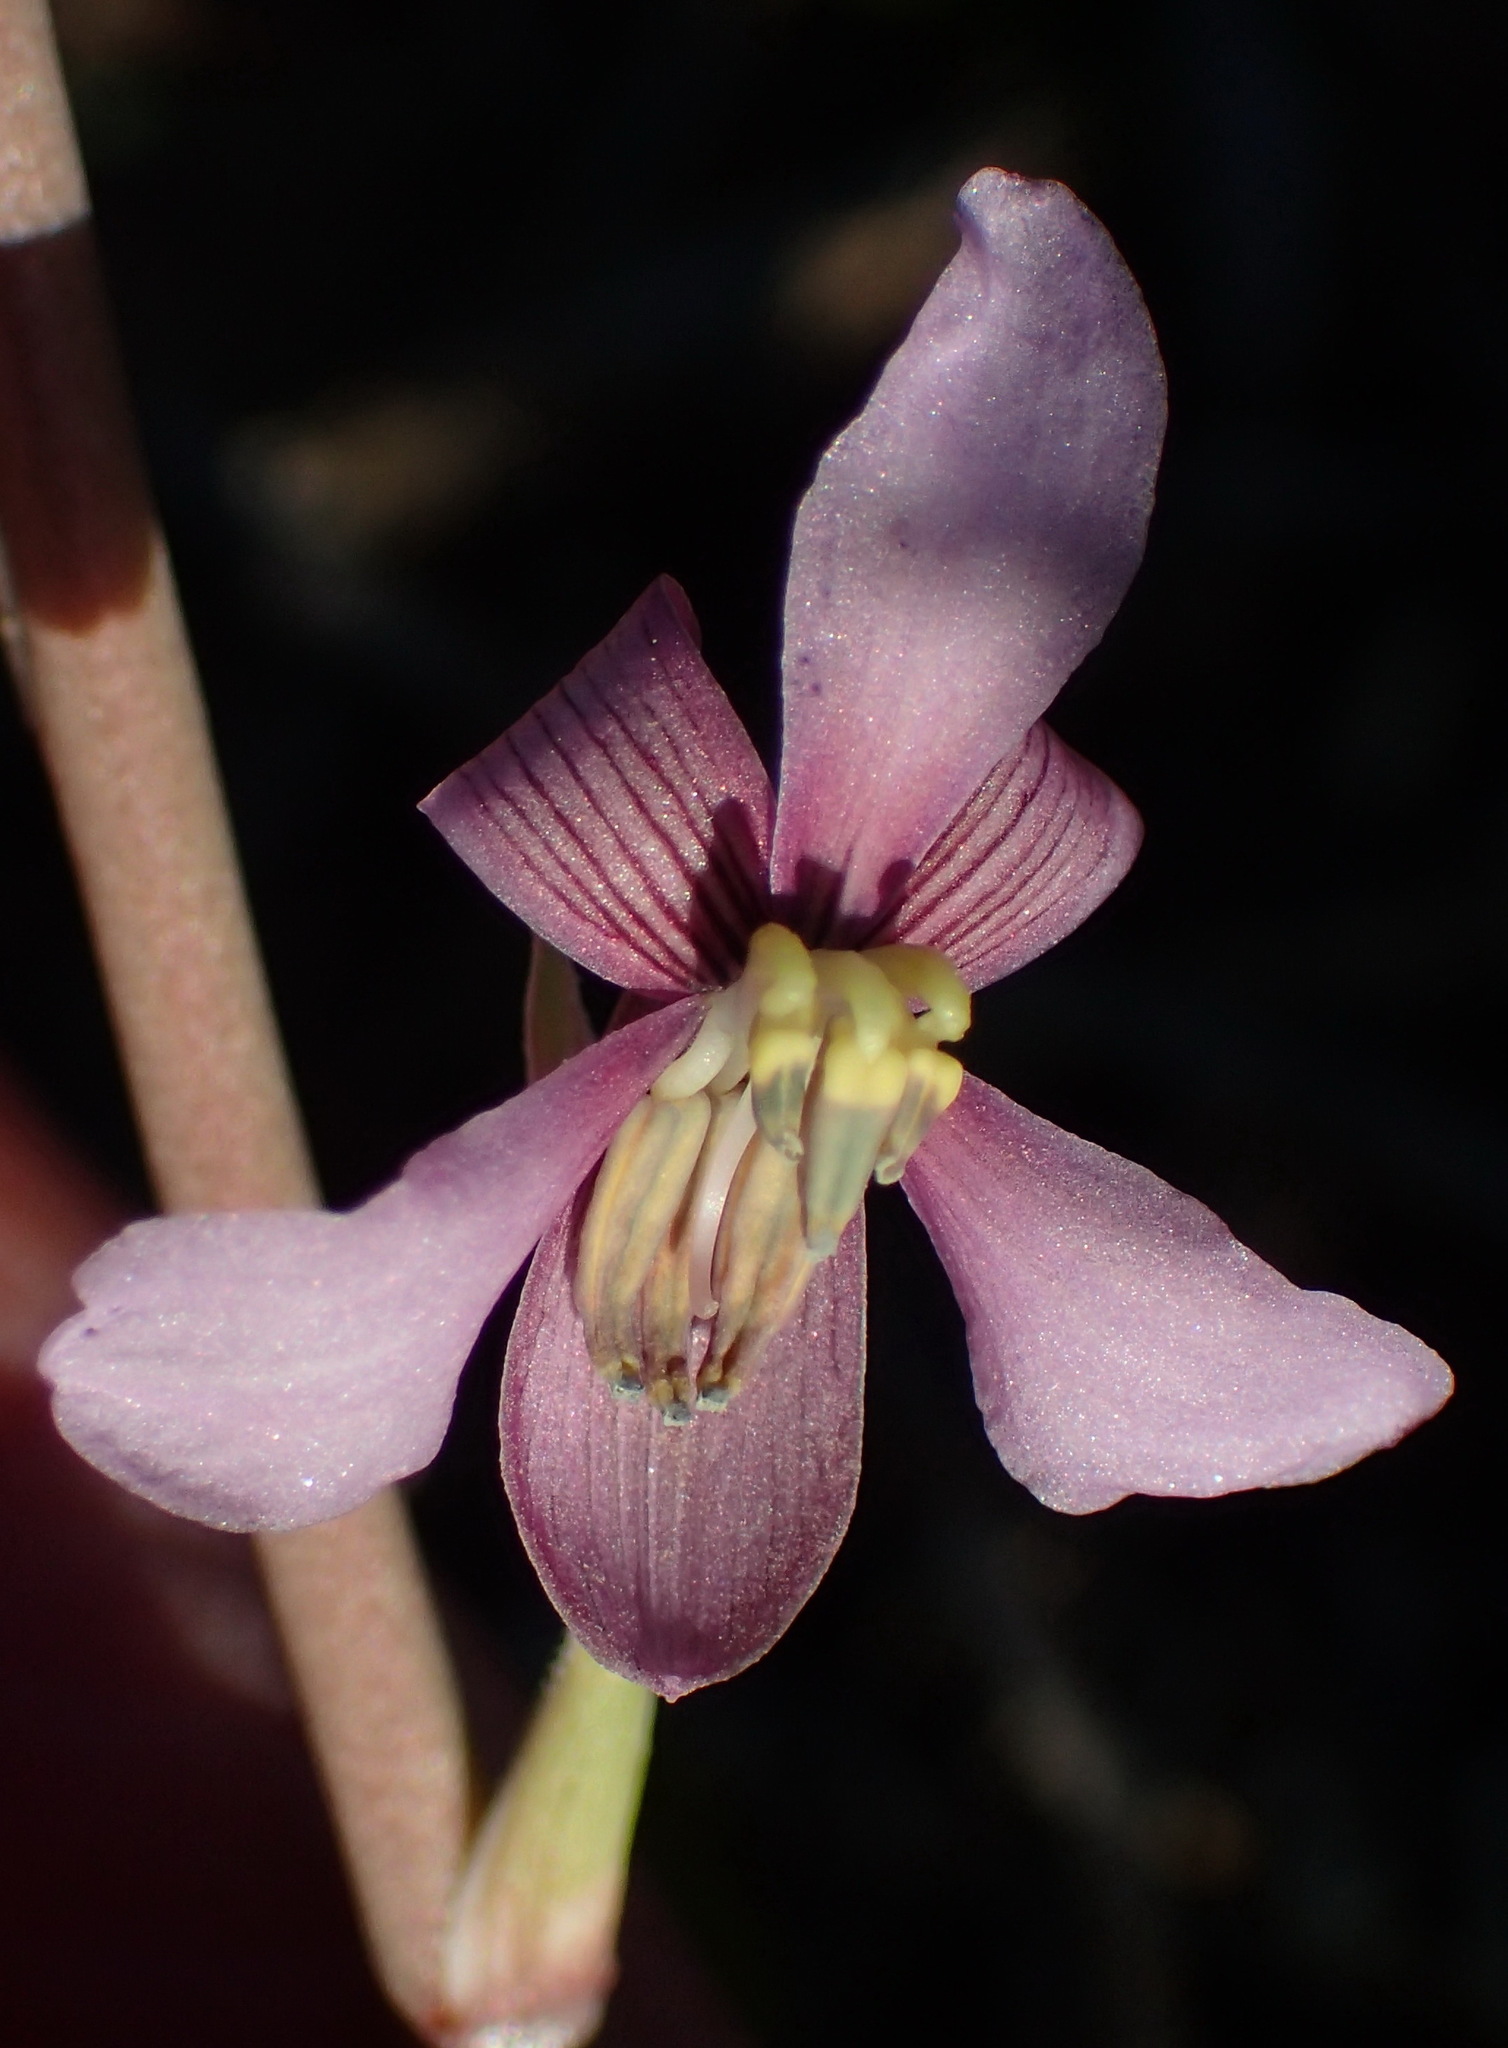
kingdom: Plantae
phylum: Tracheophyta
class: Liliopsida
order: Asparagales
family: Tecophilaeaceae
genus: Cyanella
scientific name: Cyanella orchidiformis
